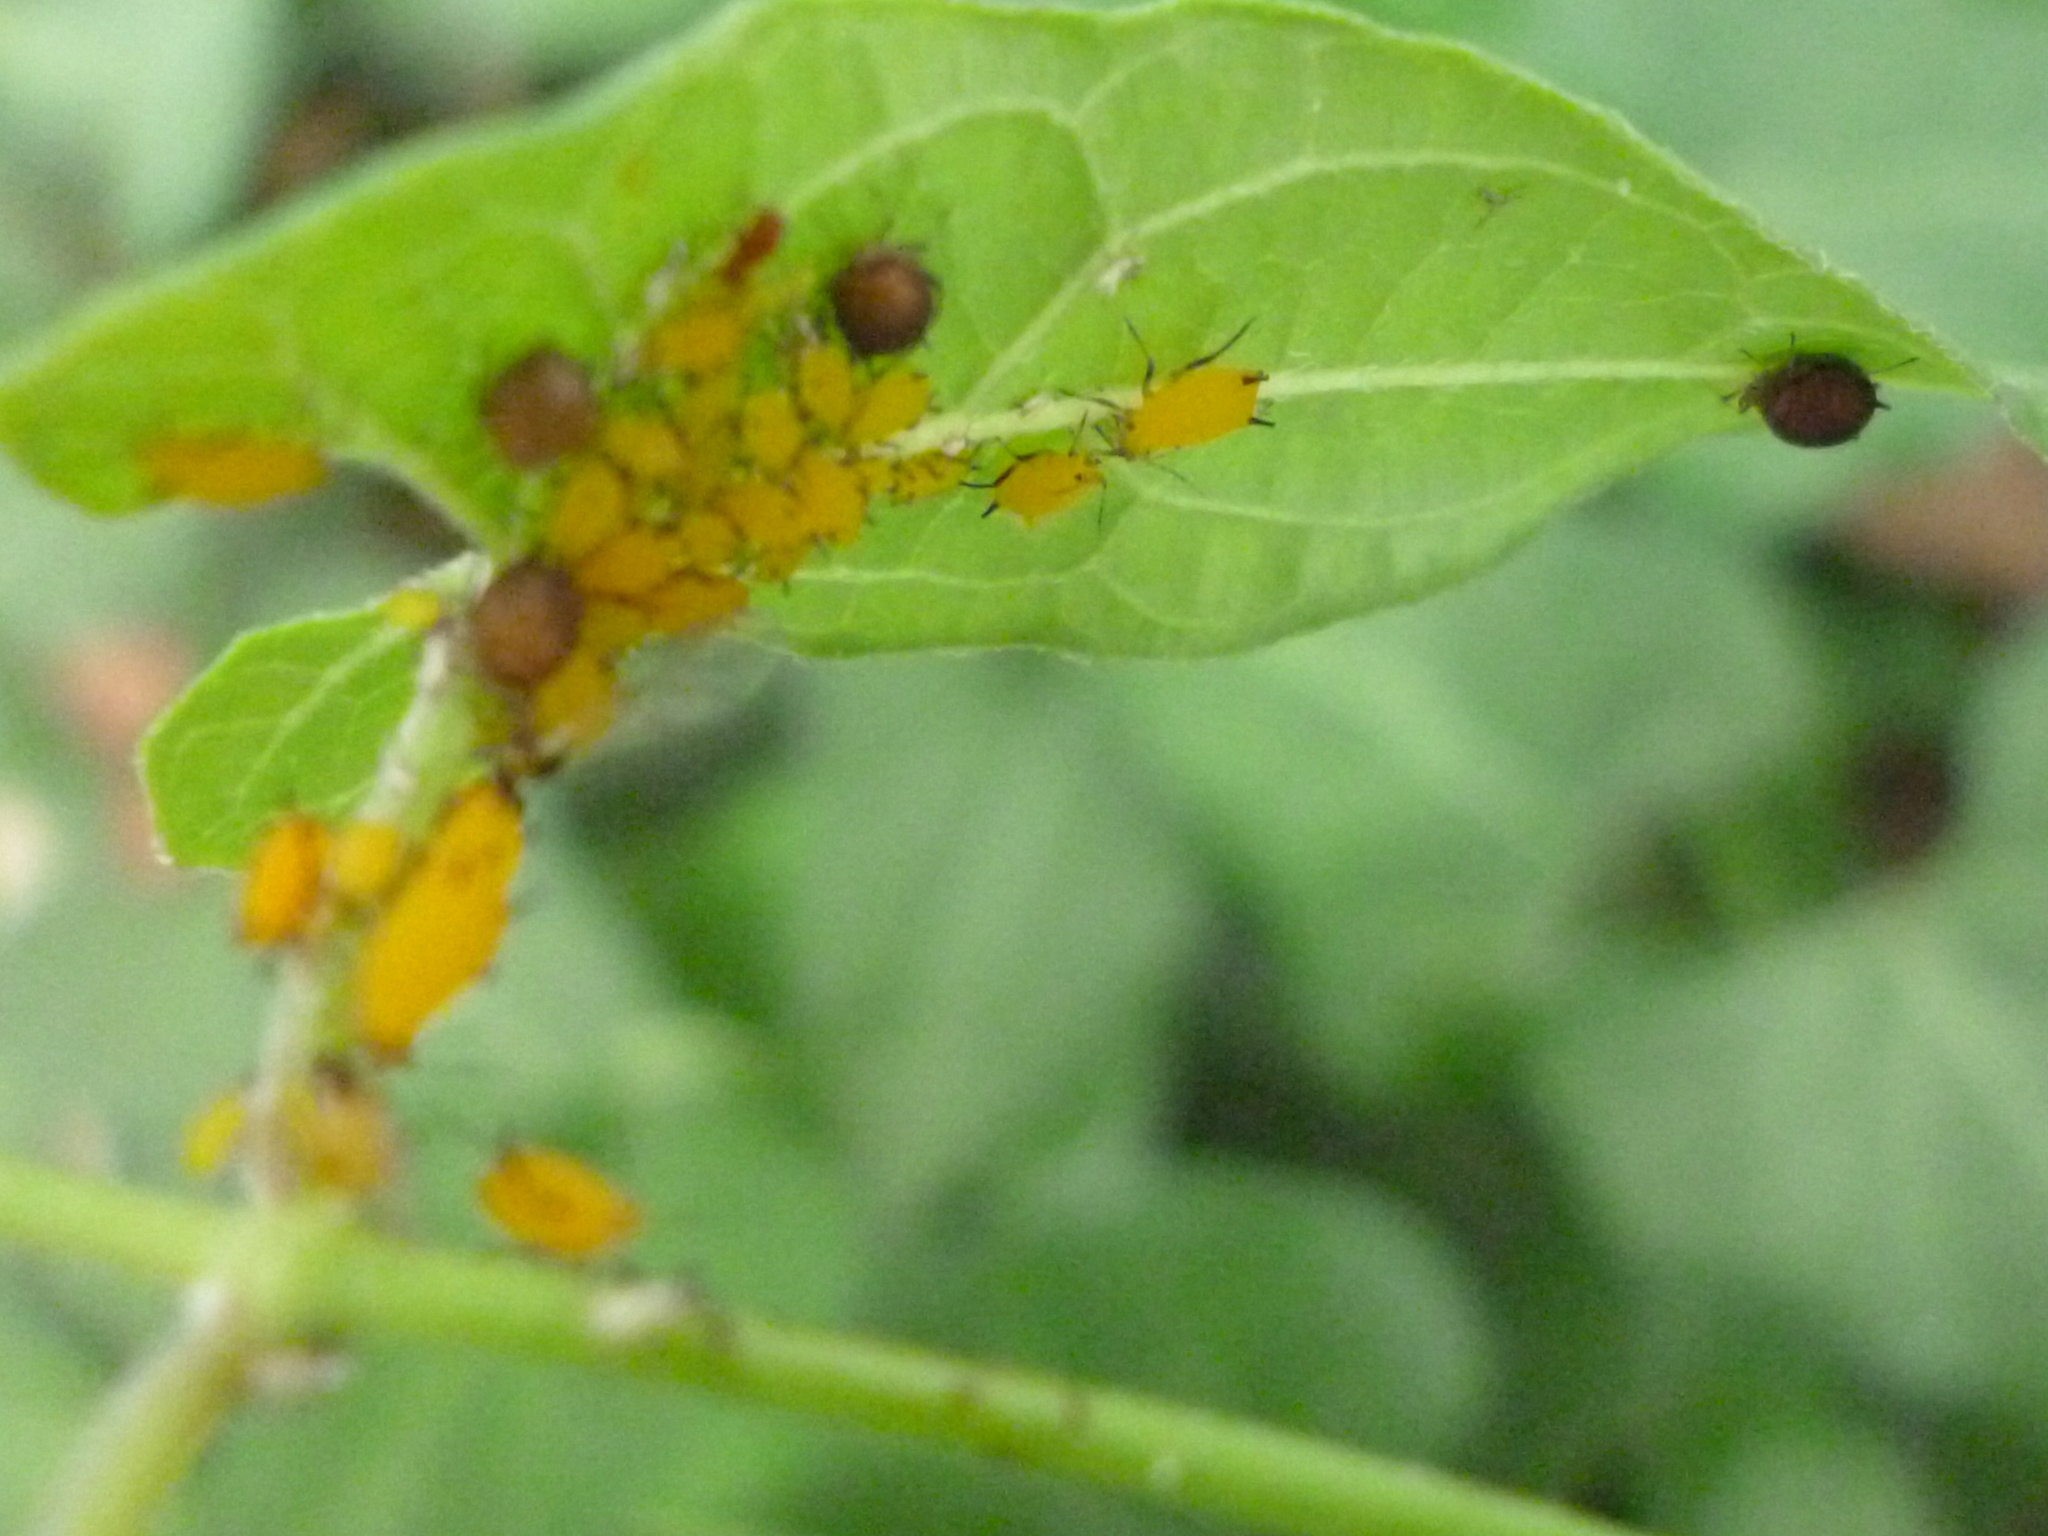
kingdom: Animalia
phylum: Arthropoda
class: Insecta
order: Hemiptera
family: Aphididae
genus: Aphis
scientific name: Aphis nerii
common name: Oleander aphid
